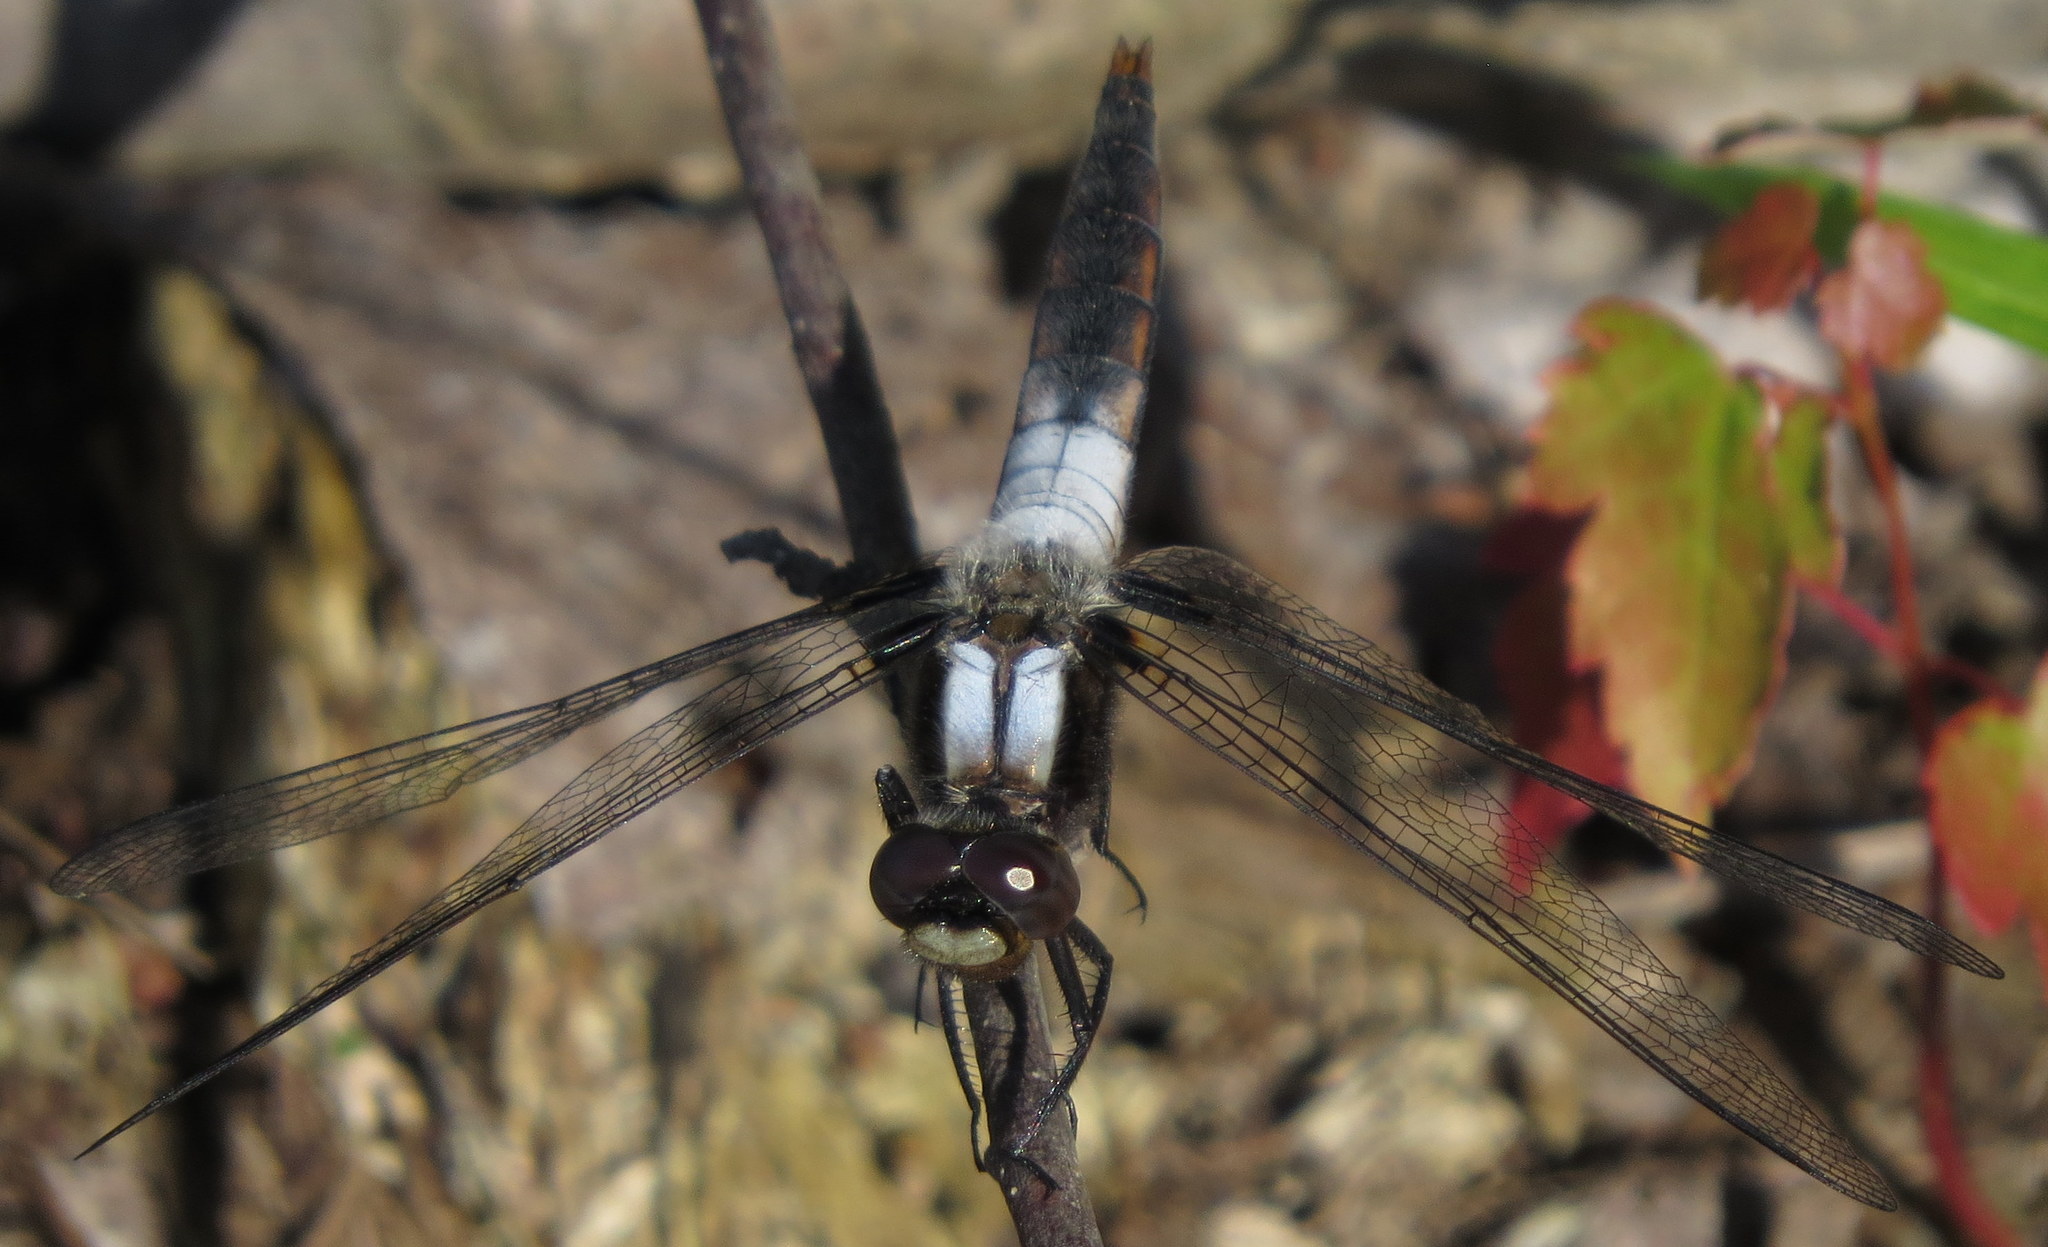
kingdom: Animalia
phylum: Arthropoda
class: Insecta
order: Odonata
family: Libellulidae
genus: Ladona
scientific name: Ladona julia
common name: Chalk-fronted corporal
